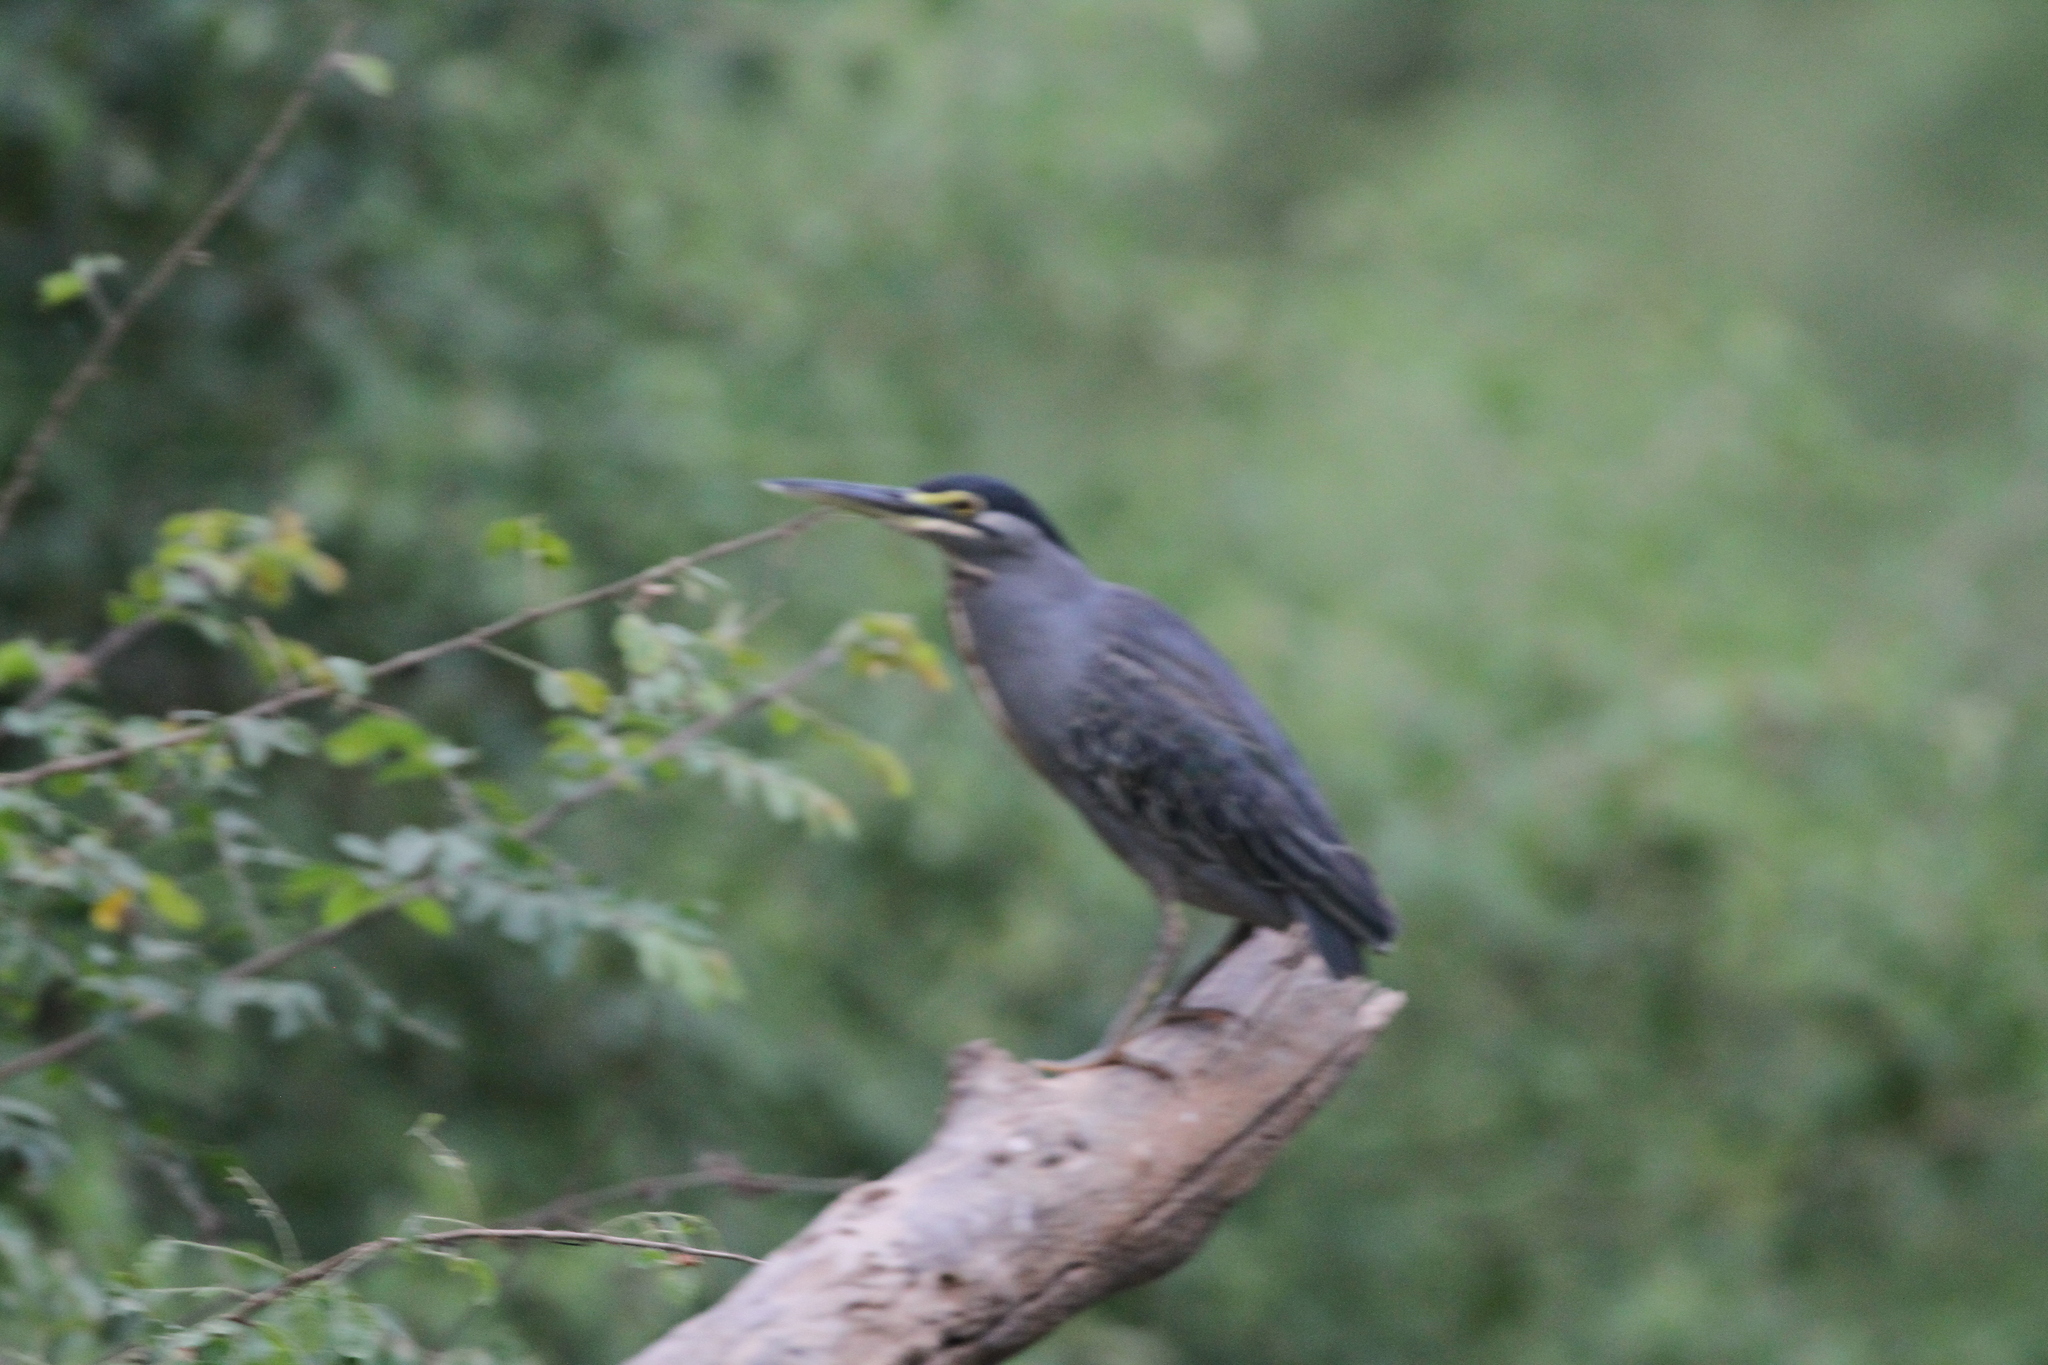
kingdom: Animalia
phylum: Chordata
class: Aves
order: Pelecaniformes
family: Ardeidae
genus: Butorides
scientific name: Butorides striata
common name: Striated heron
